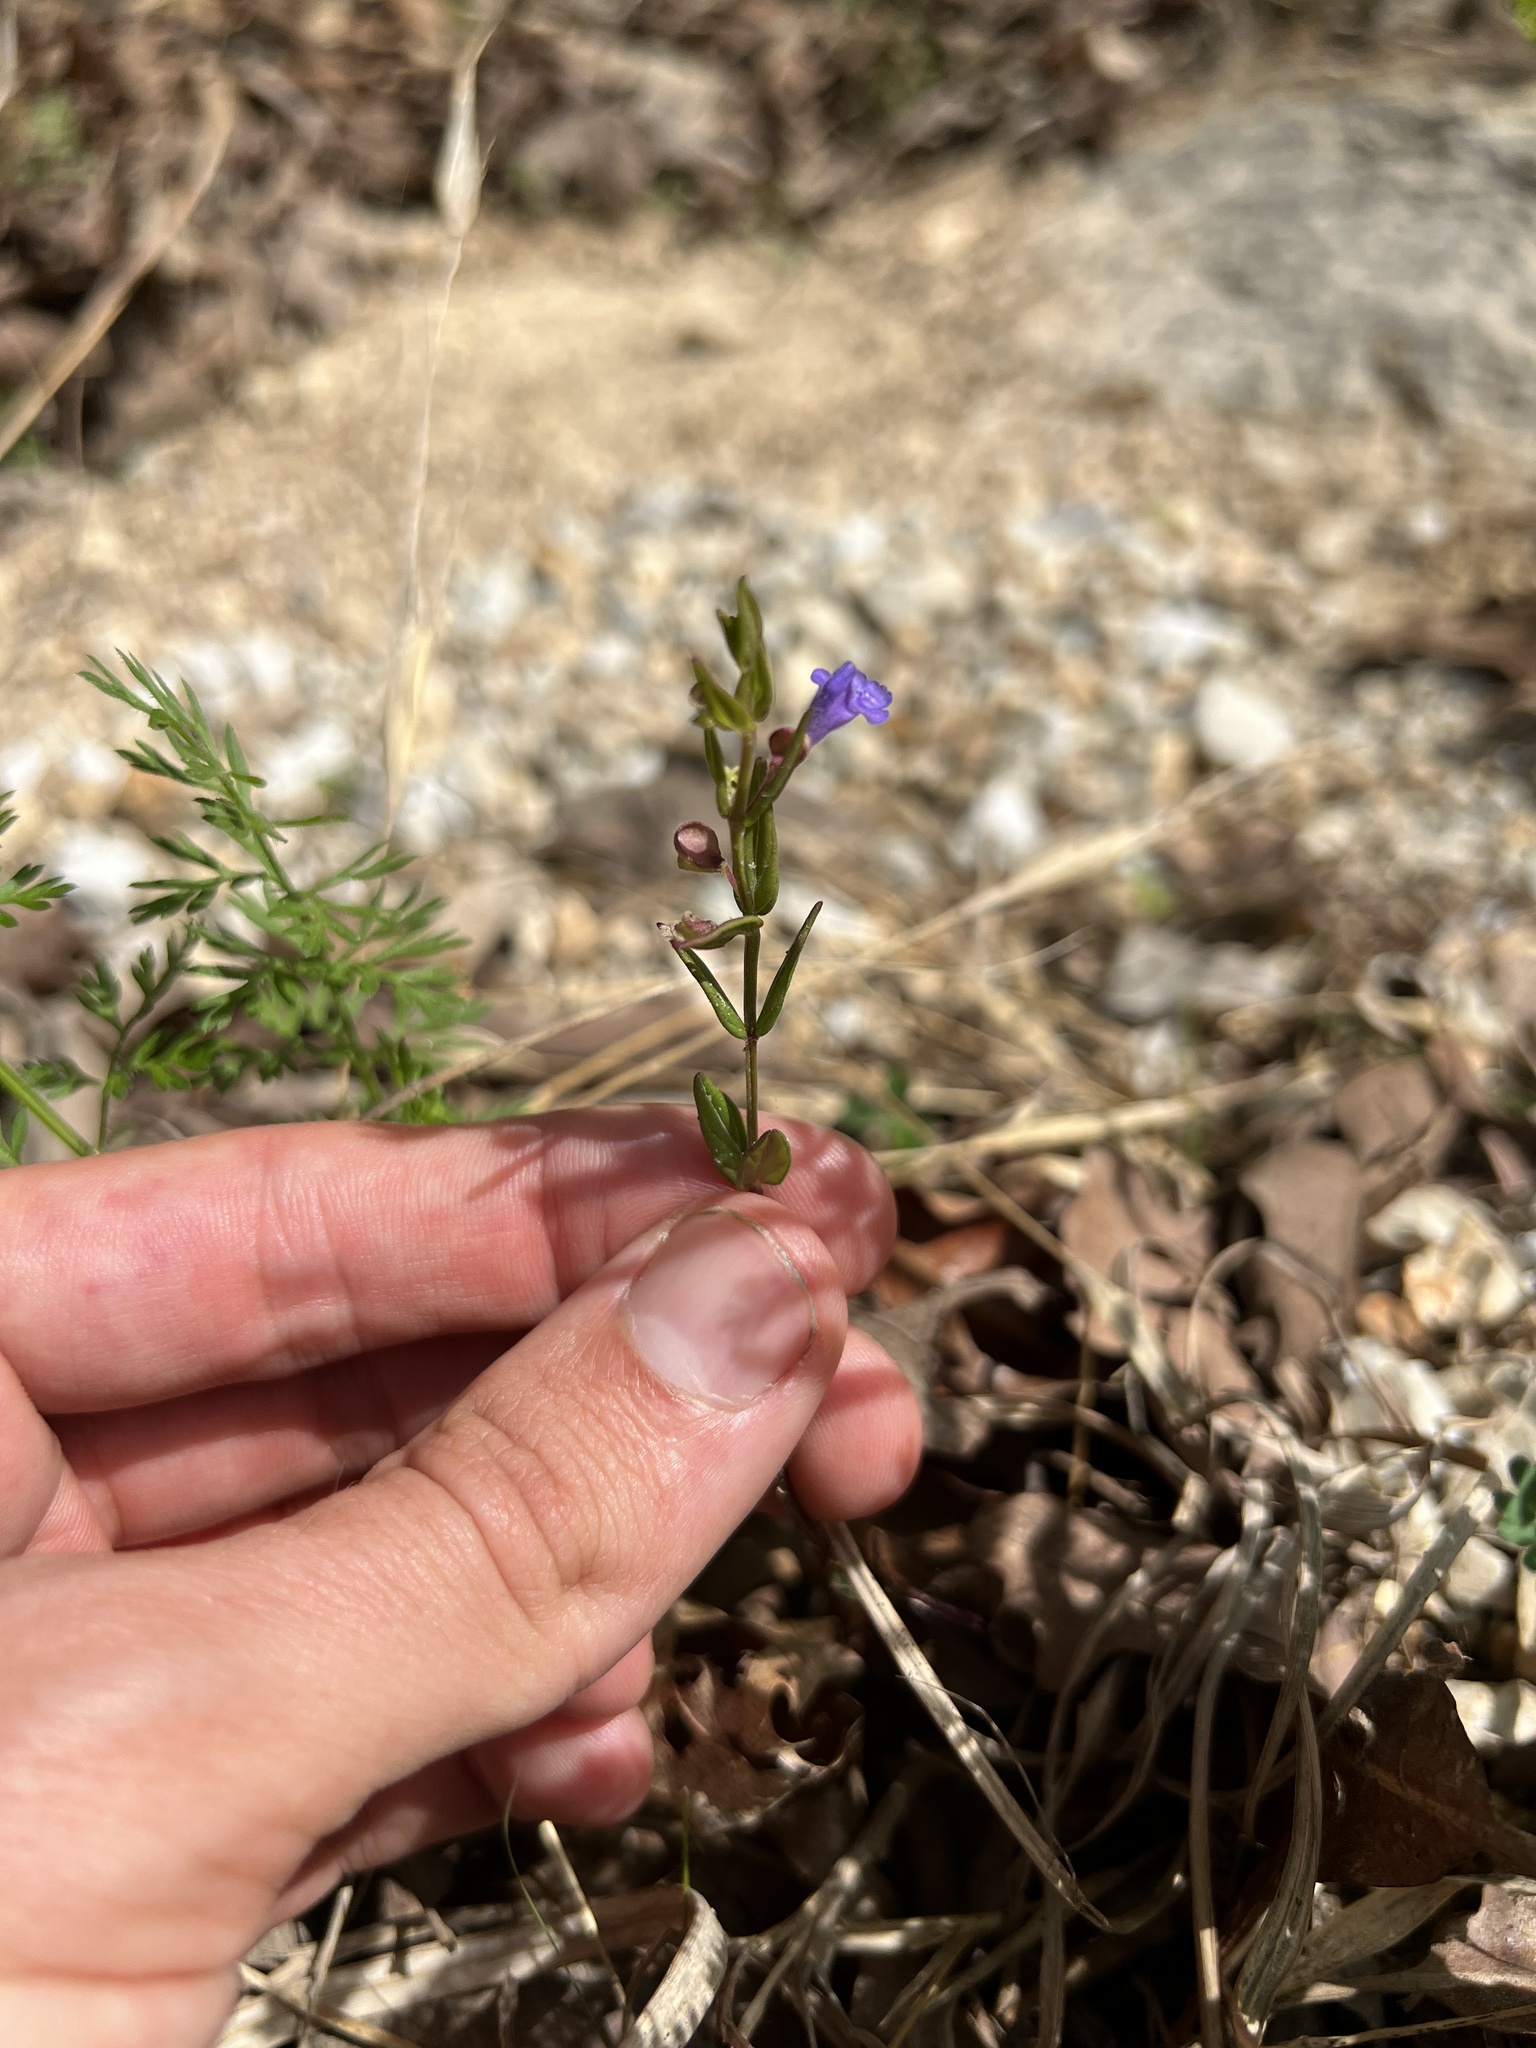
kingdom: Plantae
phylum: Tracheophyta
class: Magnoliopsida
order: Lamiales
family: Lamiaceae
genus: Scutellaria
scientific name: Scutellaria parvula
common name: Little scullcap
